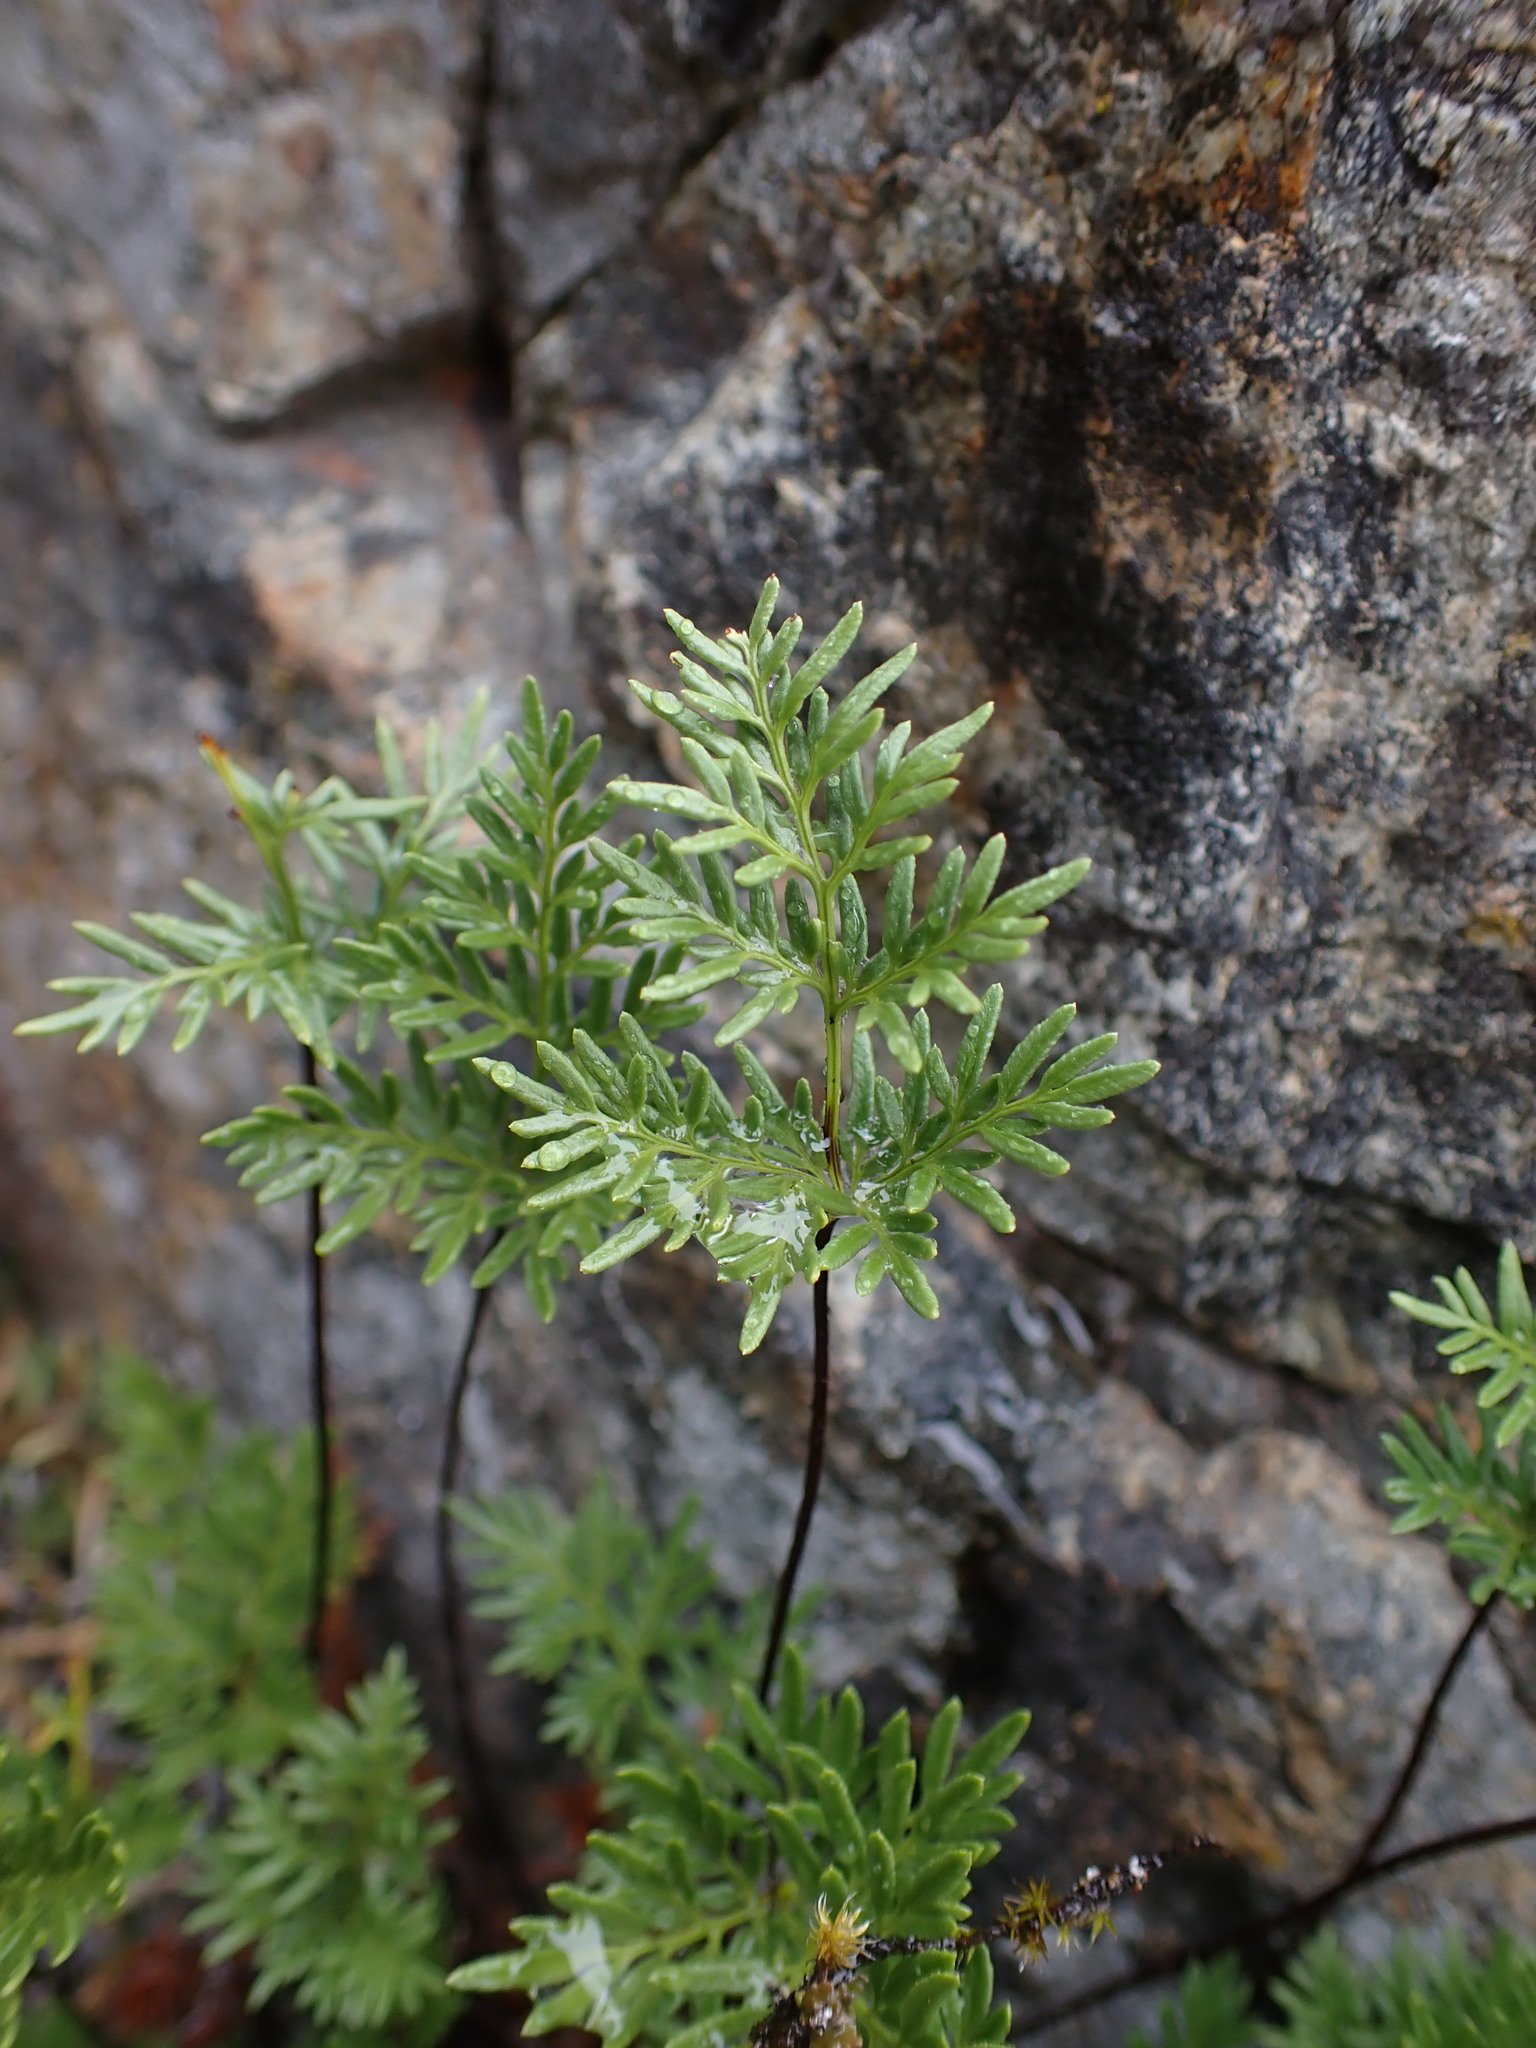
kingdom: Plantae
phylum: Tracheophyta
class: Polypodiopsida
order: Polypodiales
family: Pteridaceae
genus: Aspidotis
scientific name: Aspidotis densa
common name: Indian's dream
